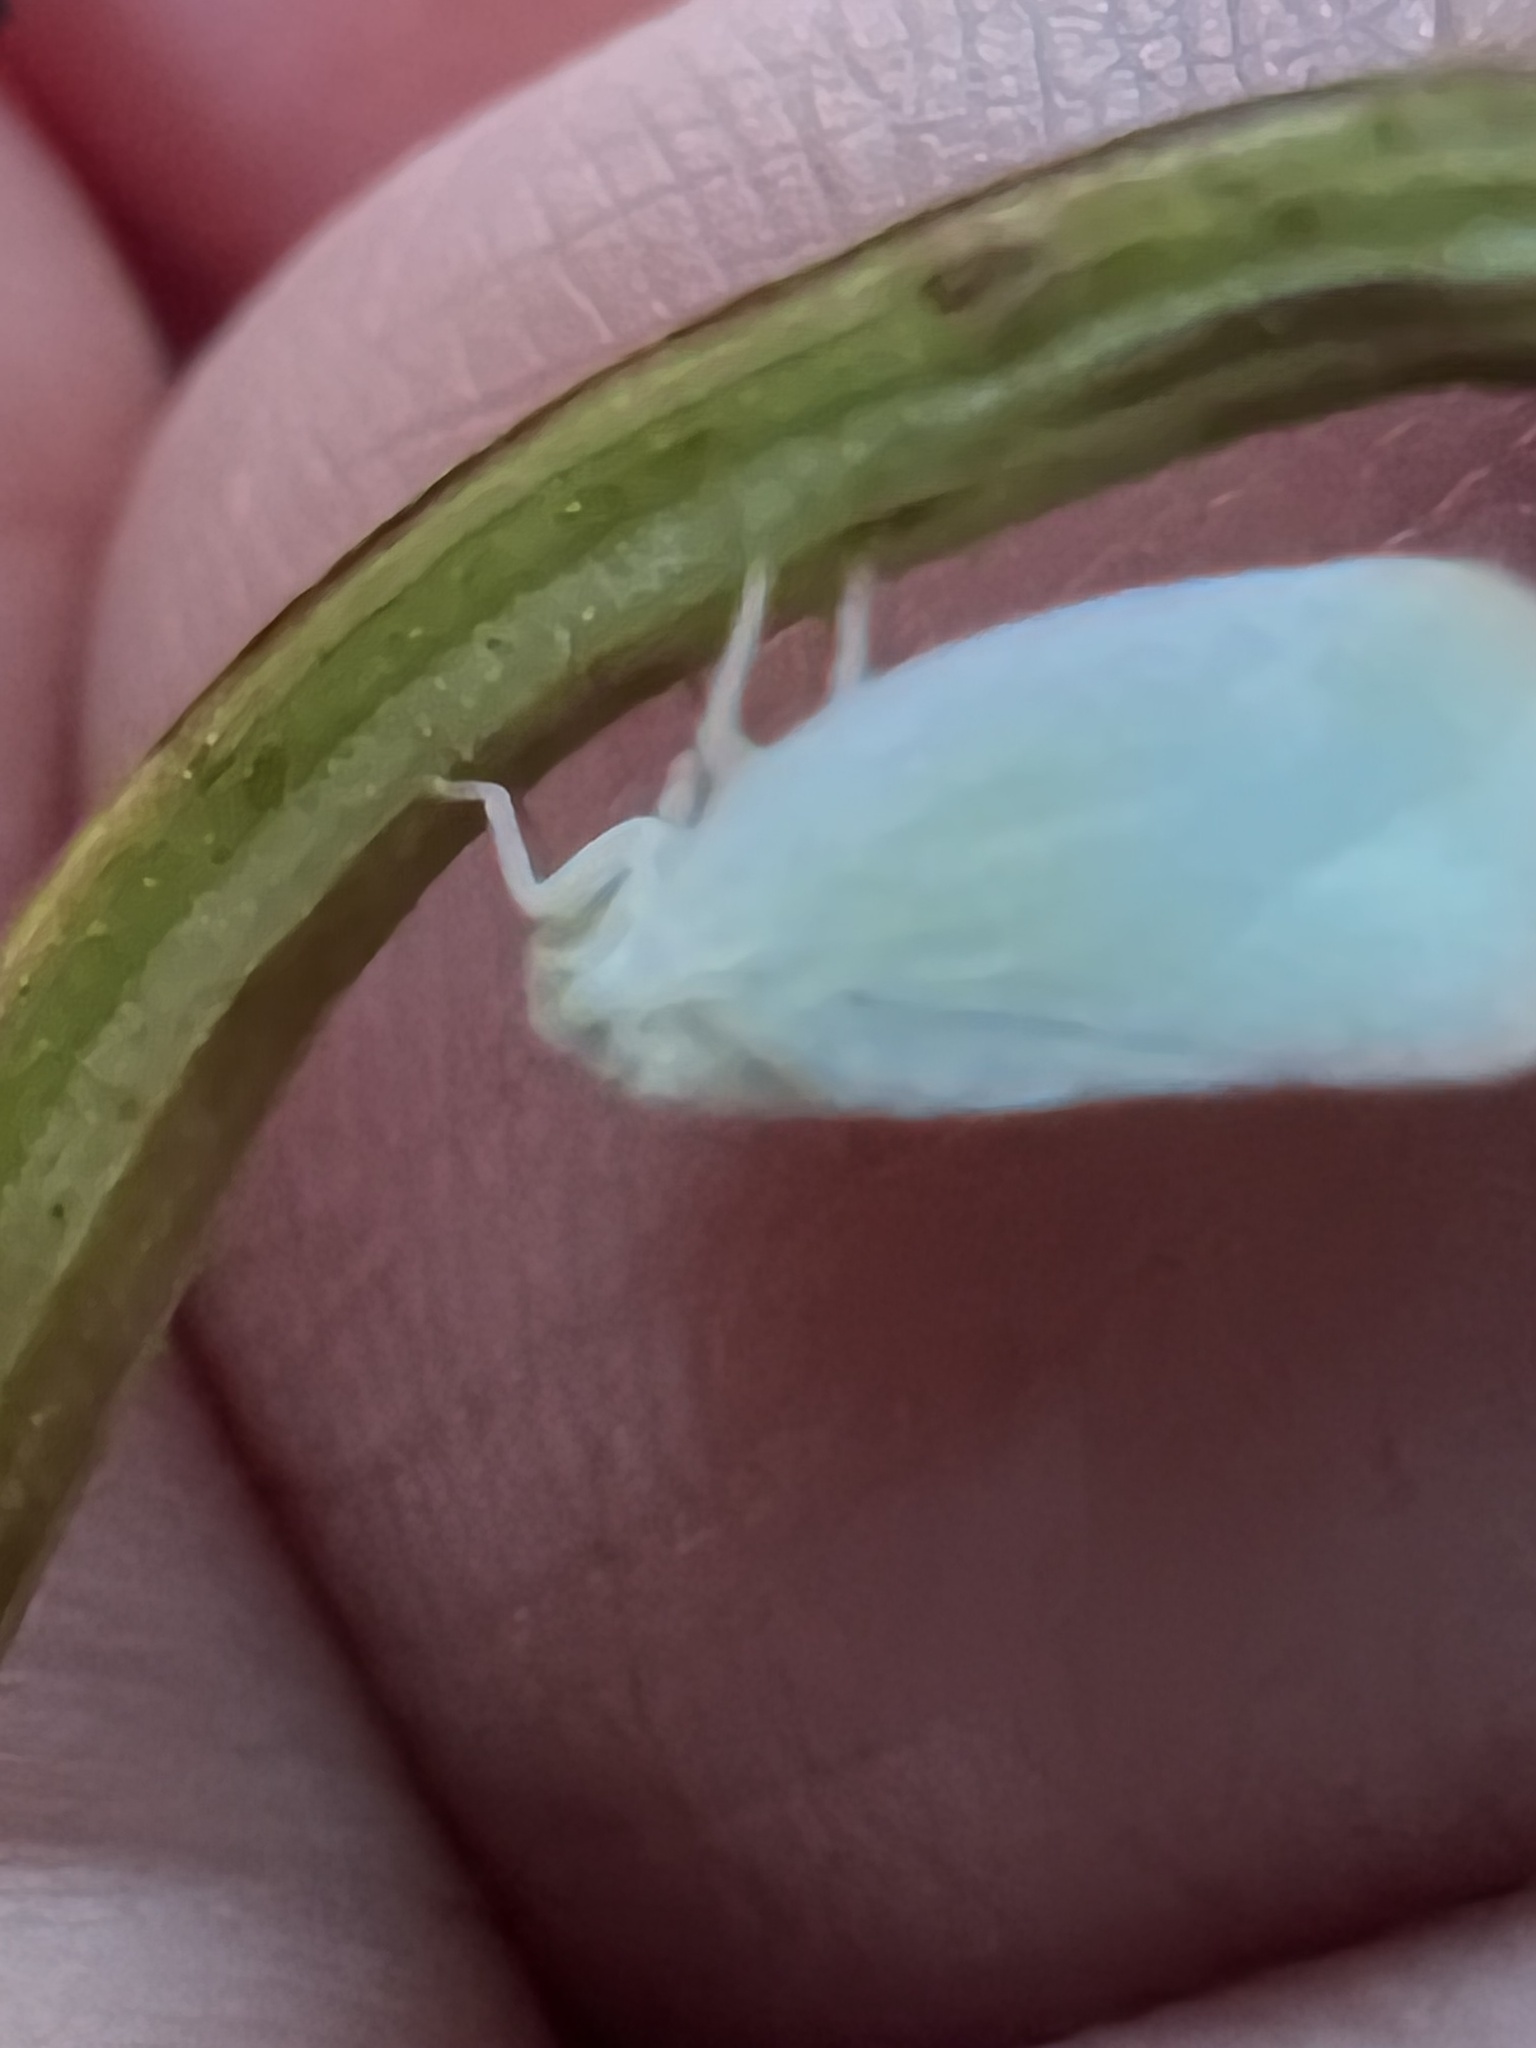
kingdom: Animalia
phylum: Arthropoda
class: Insecta
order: Hemiptera
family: Flatidae
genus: Ormenoides
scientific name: Ormenoides venusta
